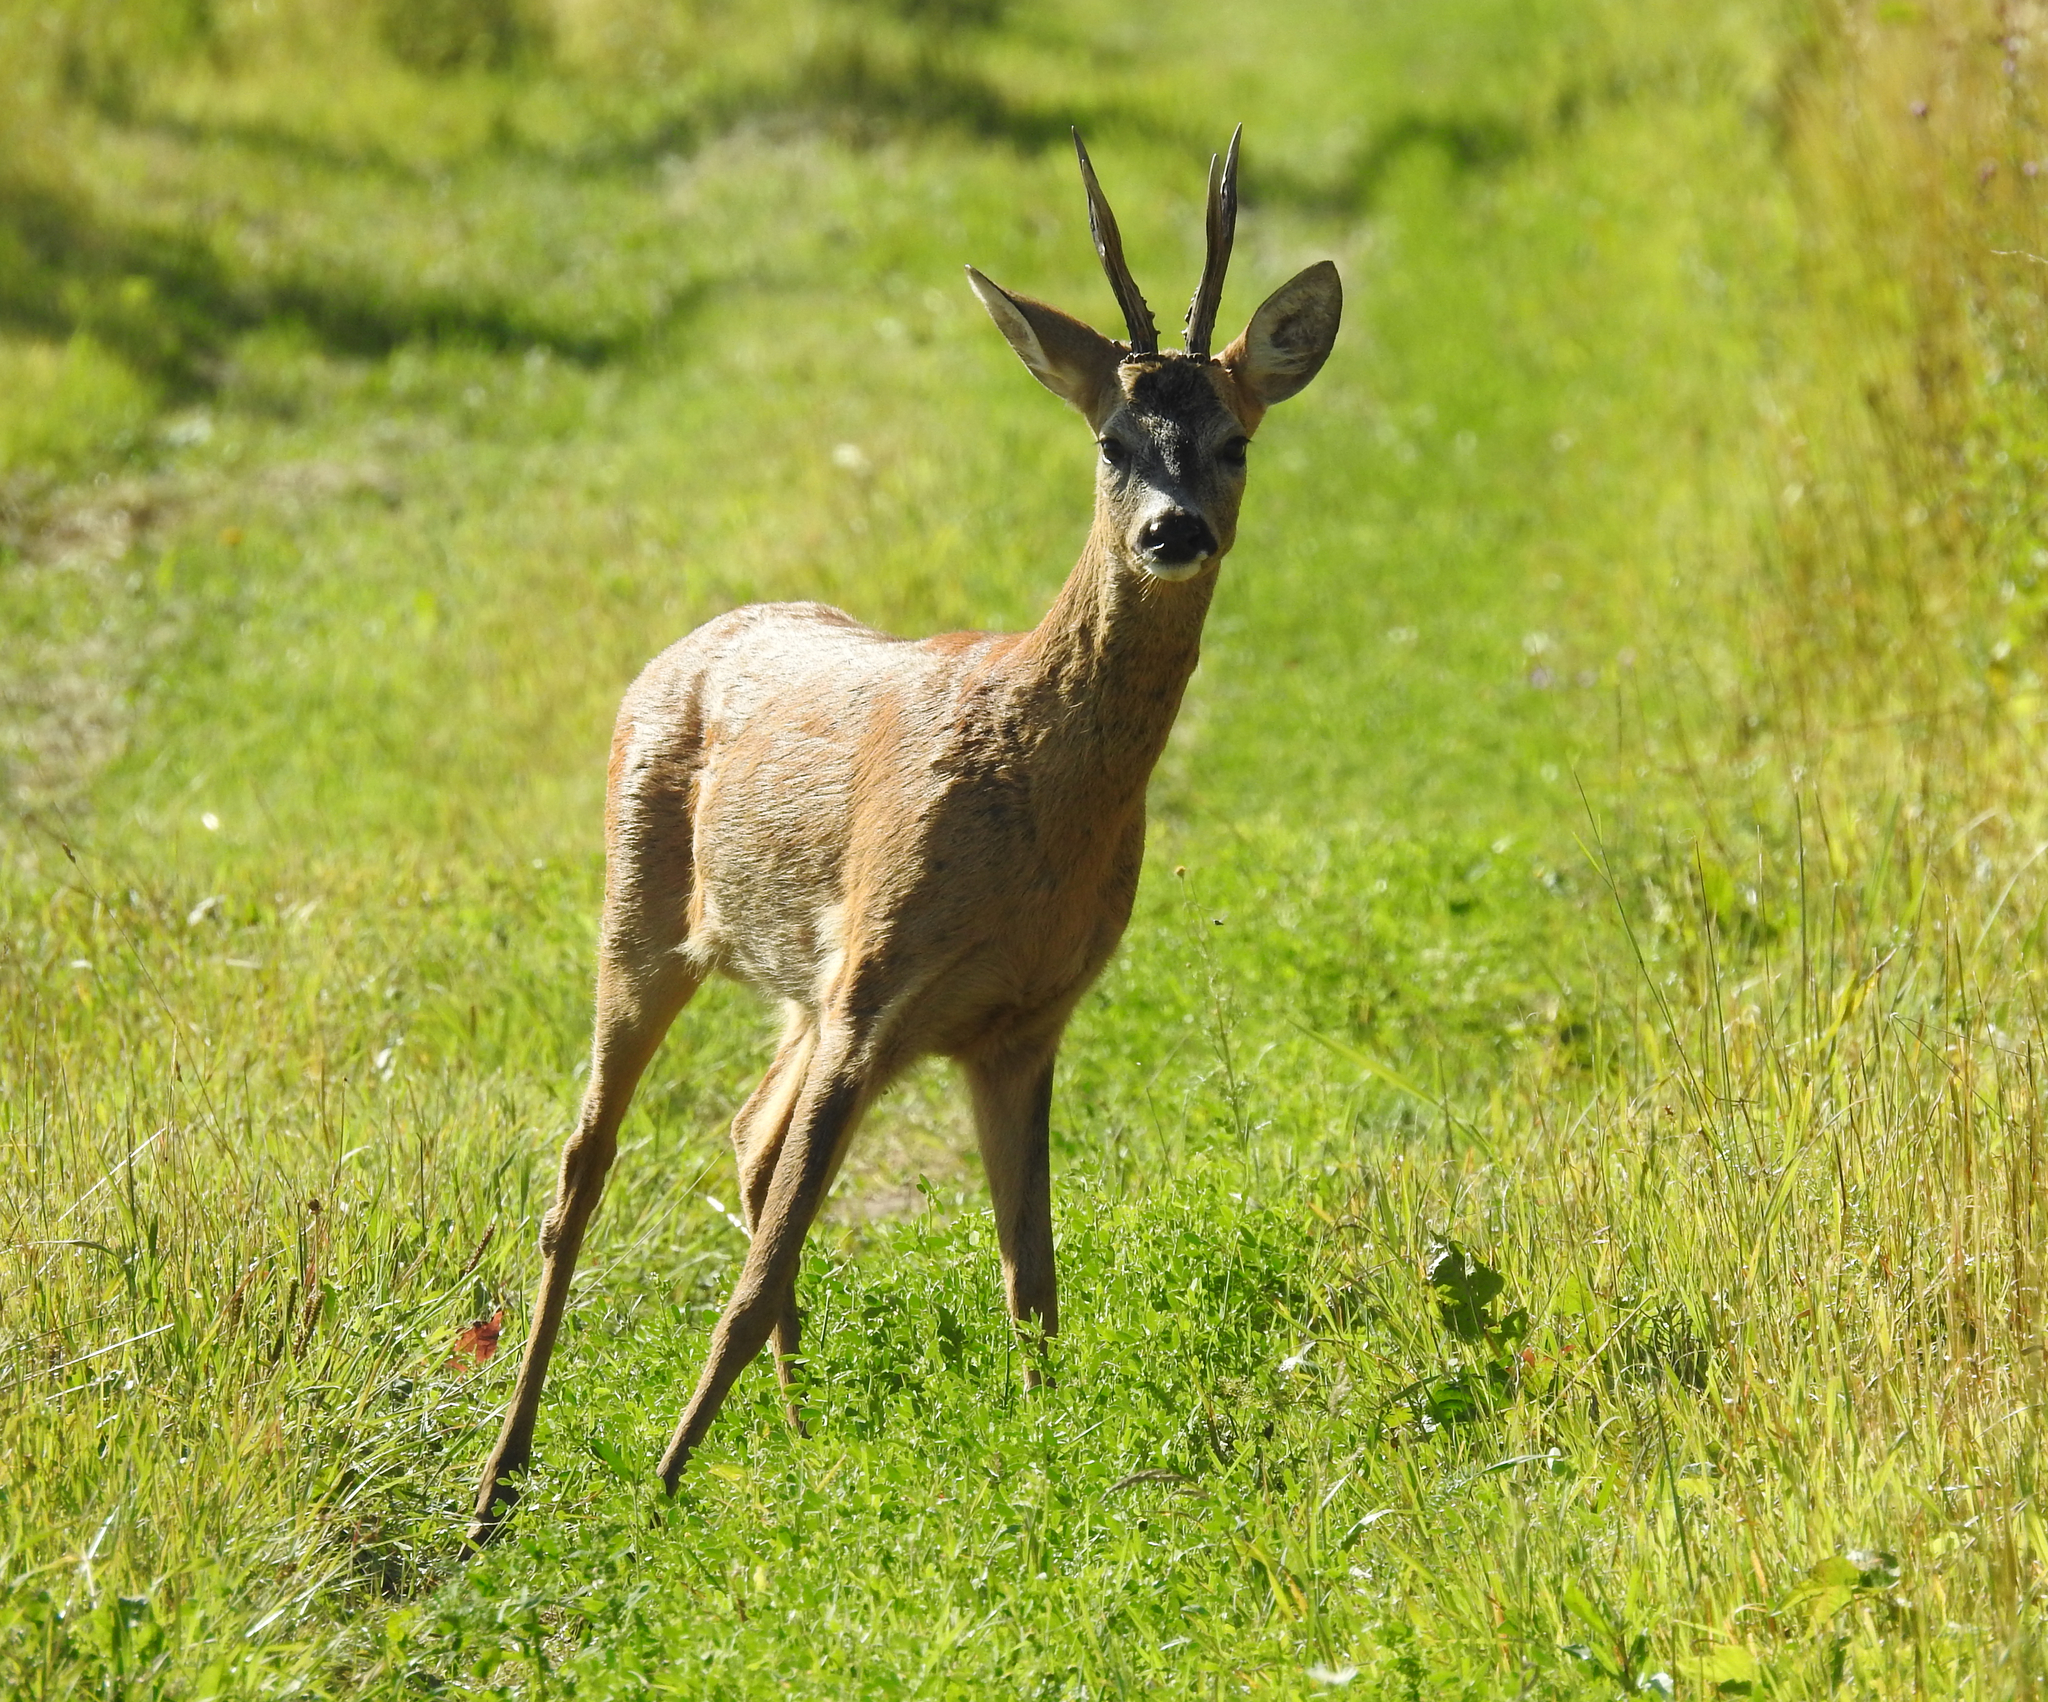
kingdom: Animalia
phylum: Chordata
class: Mammalia
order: Artiodactyla
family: Cervidae
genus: Capreolus
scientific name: Capreolus capreolus
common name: Western roe deer
